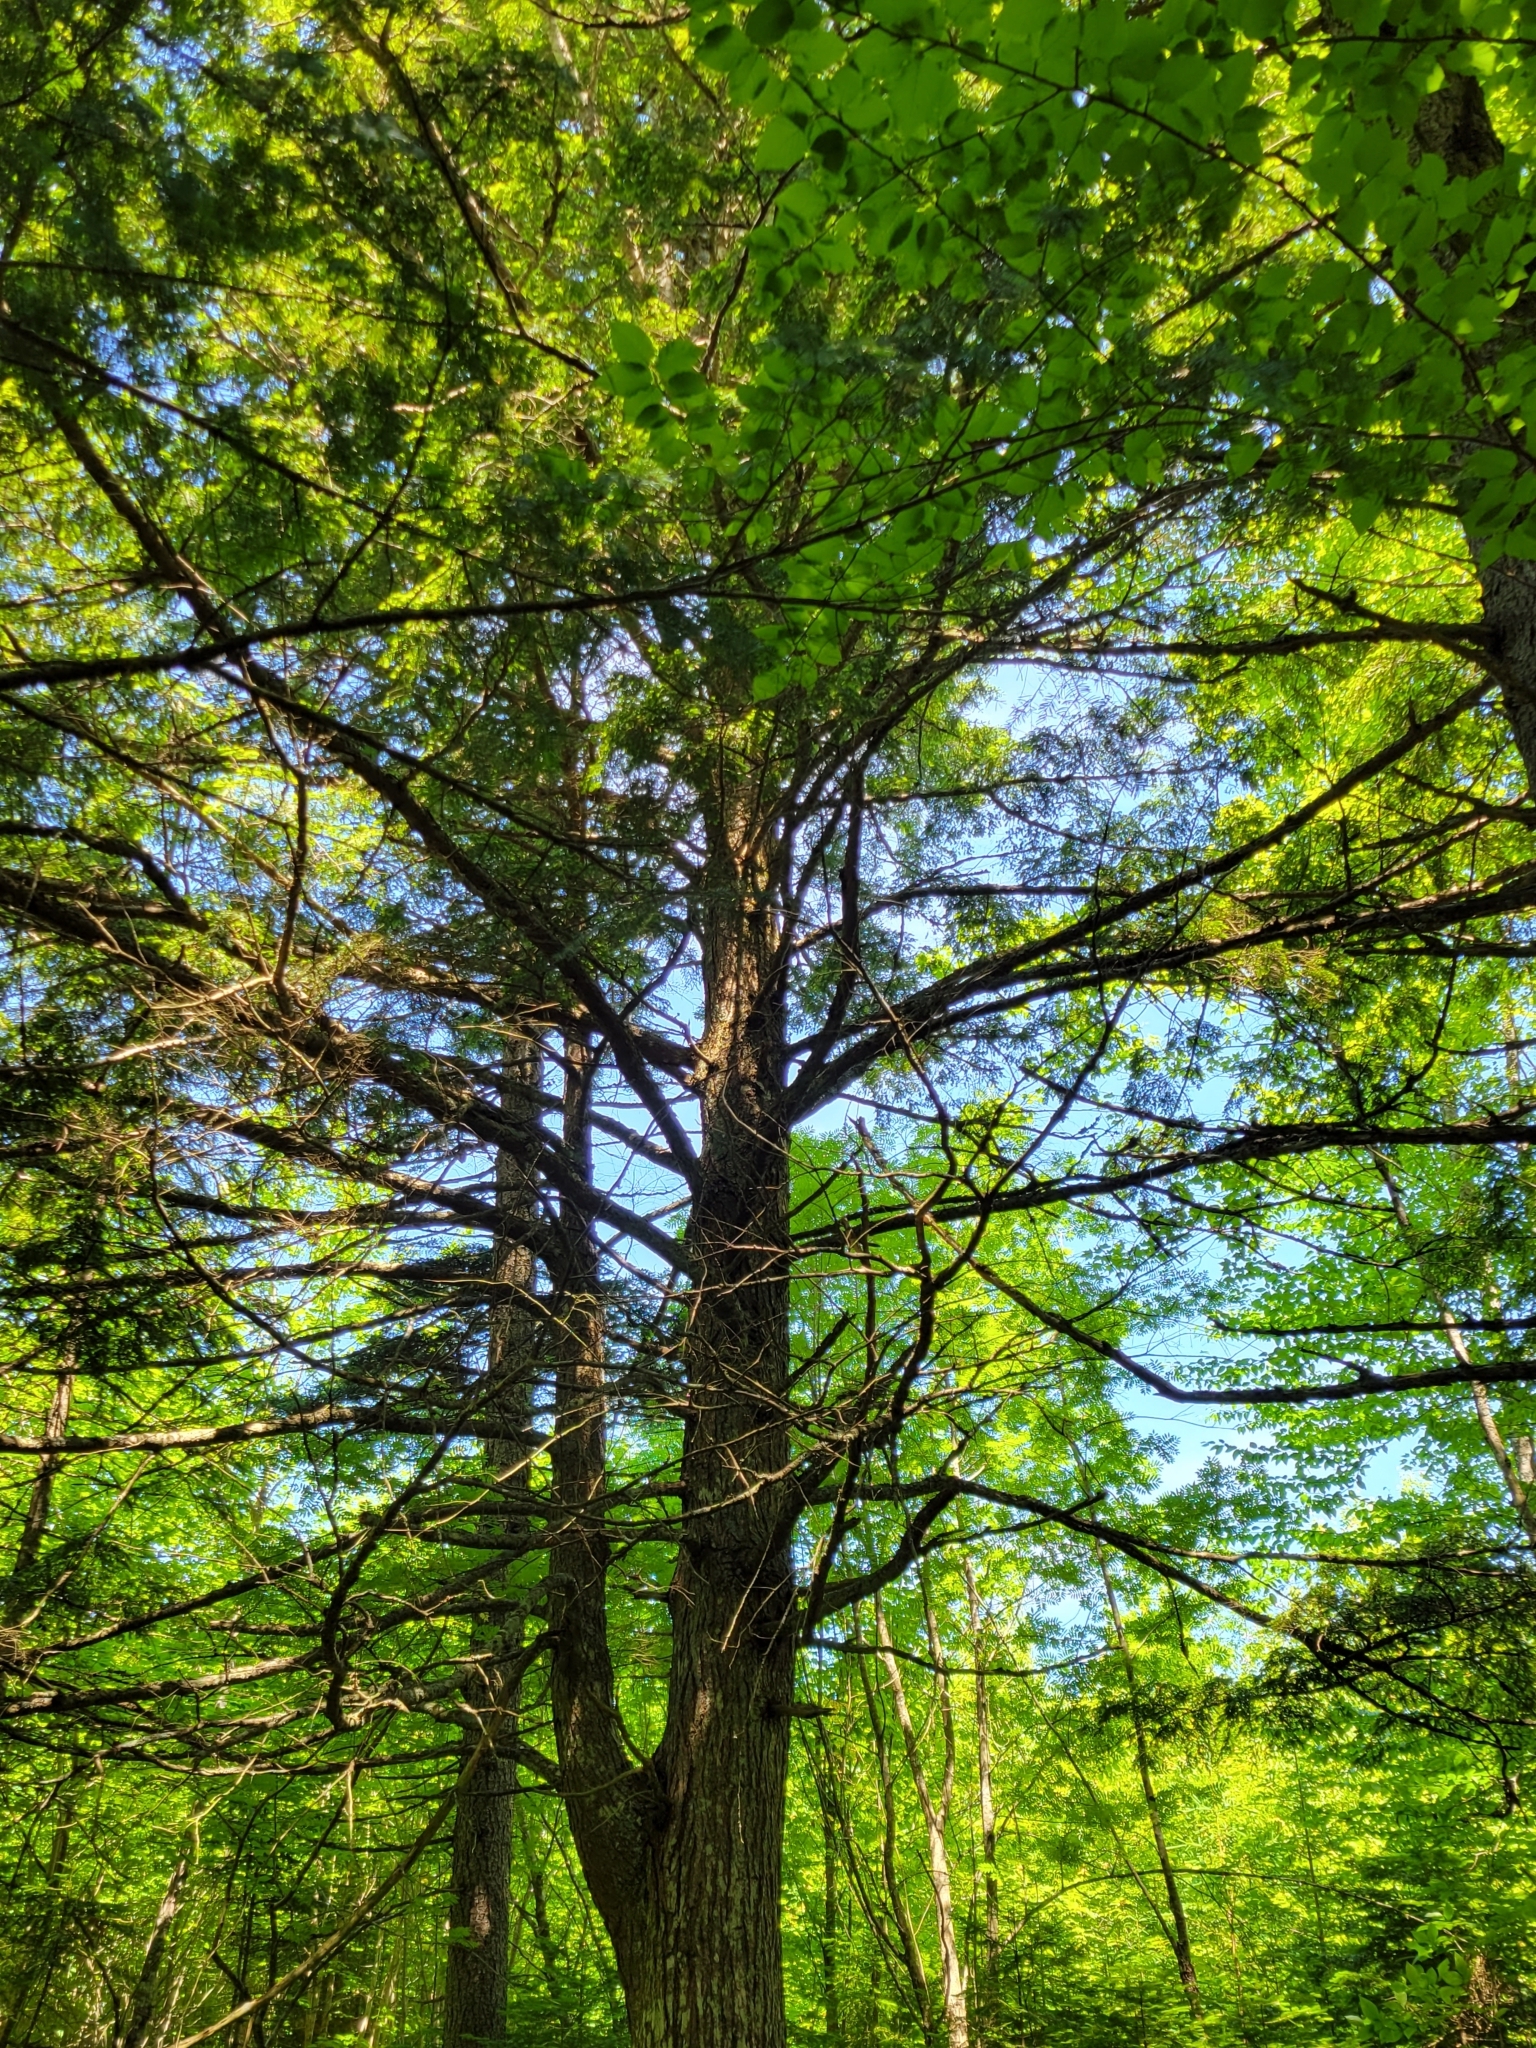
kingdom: Plantae
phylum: Tracheophyta
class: Pinopsida
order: Pinales
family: Pinaceae
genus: Tsuga
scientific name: Tsuga canadensis
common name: Eastern hemlock
